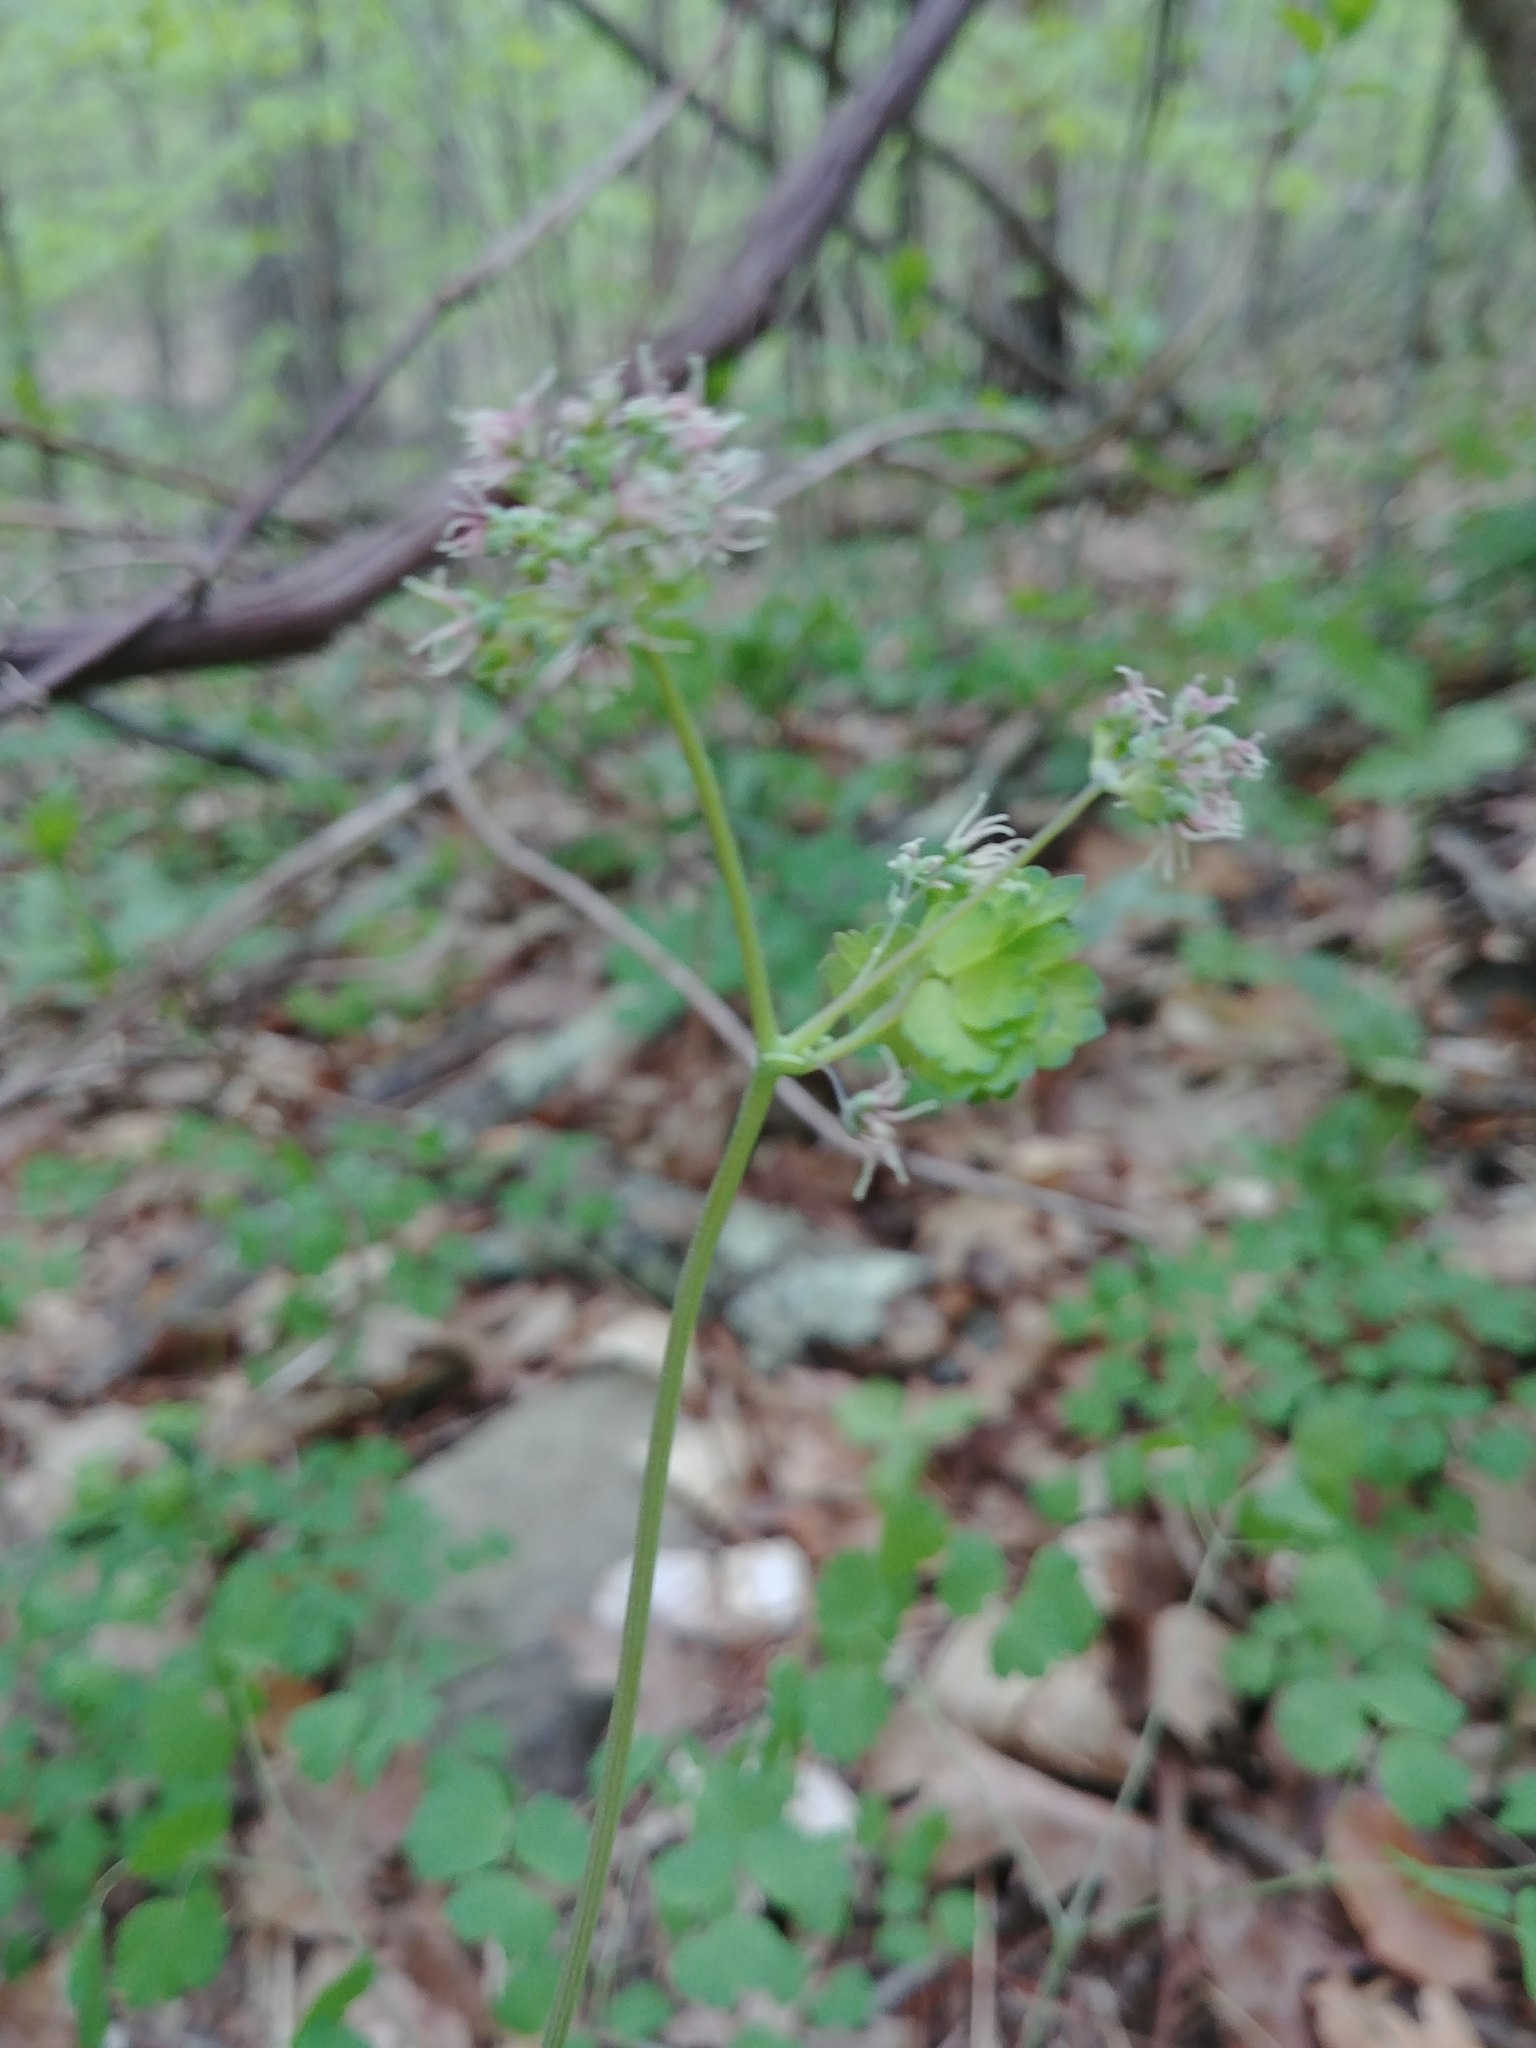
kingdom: Plantae
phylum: Tracheophyta
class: Magnoliopsida
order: Ranunculales
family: Ranunculaceae
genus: Thalictrum
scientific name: Thalictrum dioicum
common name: Early meadow-rue
